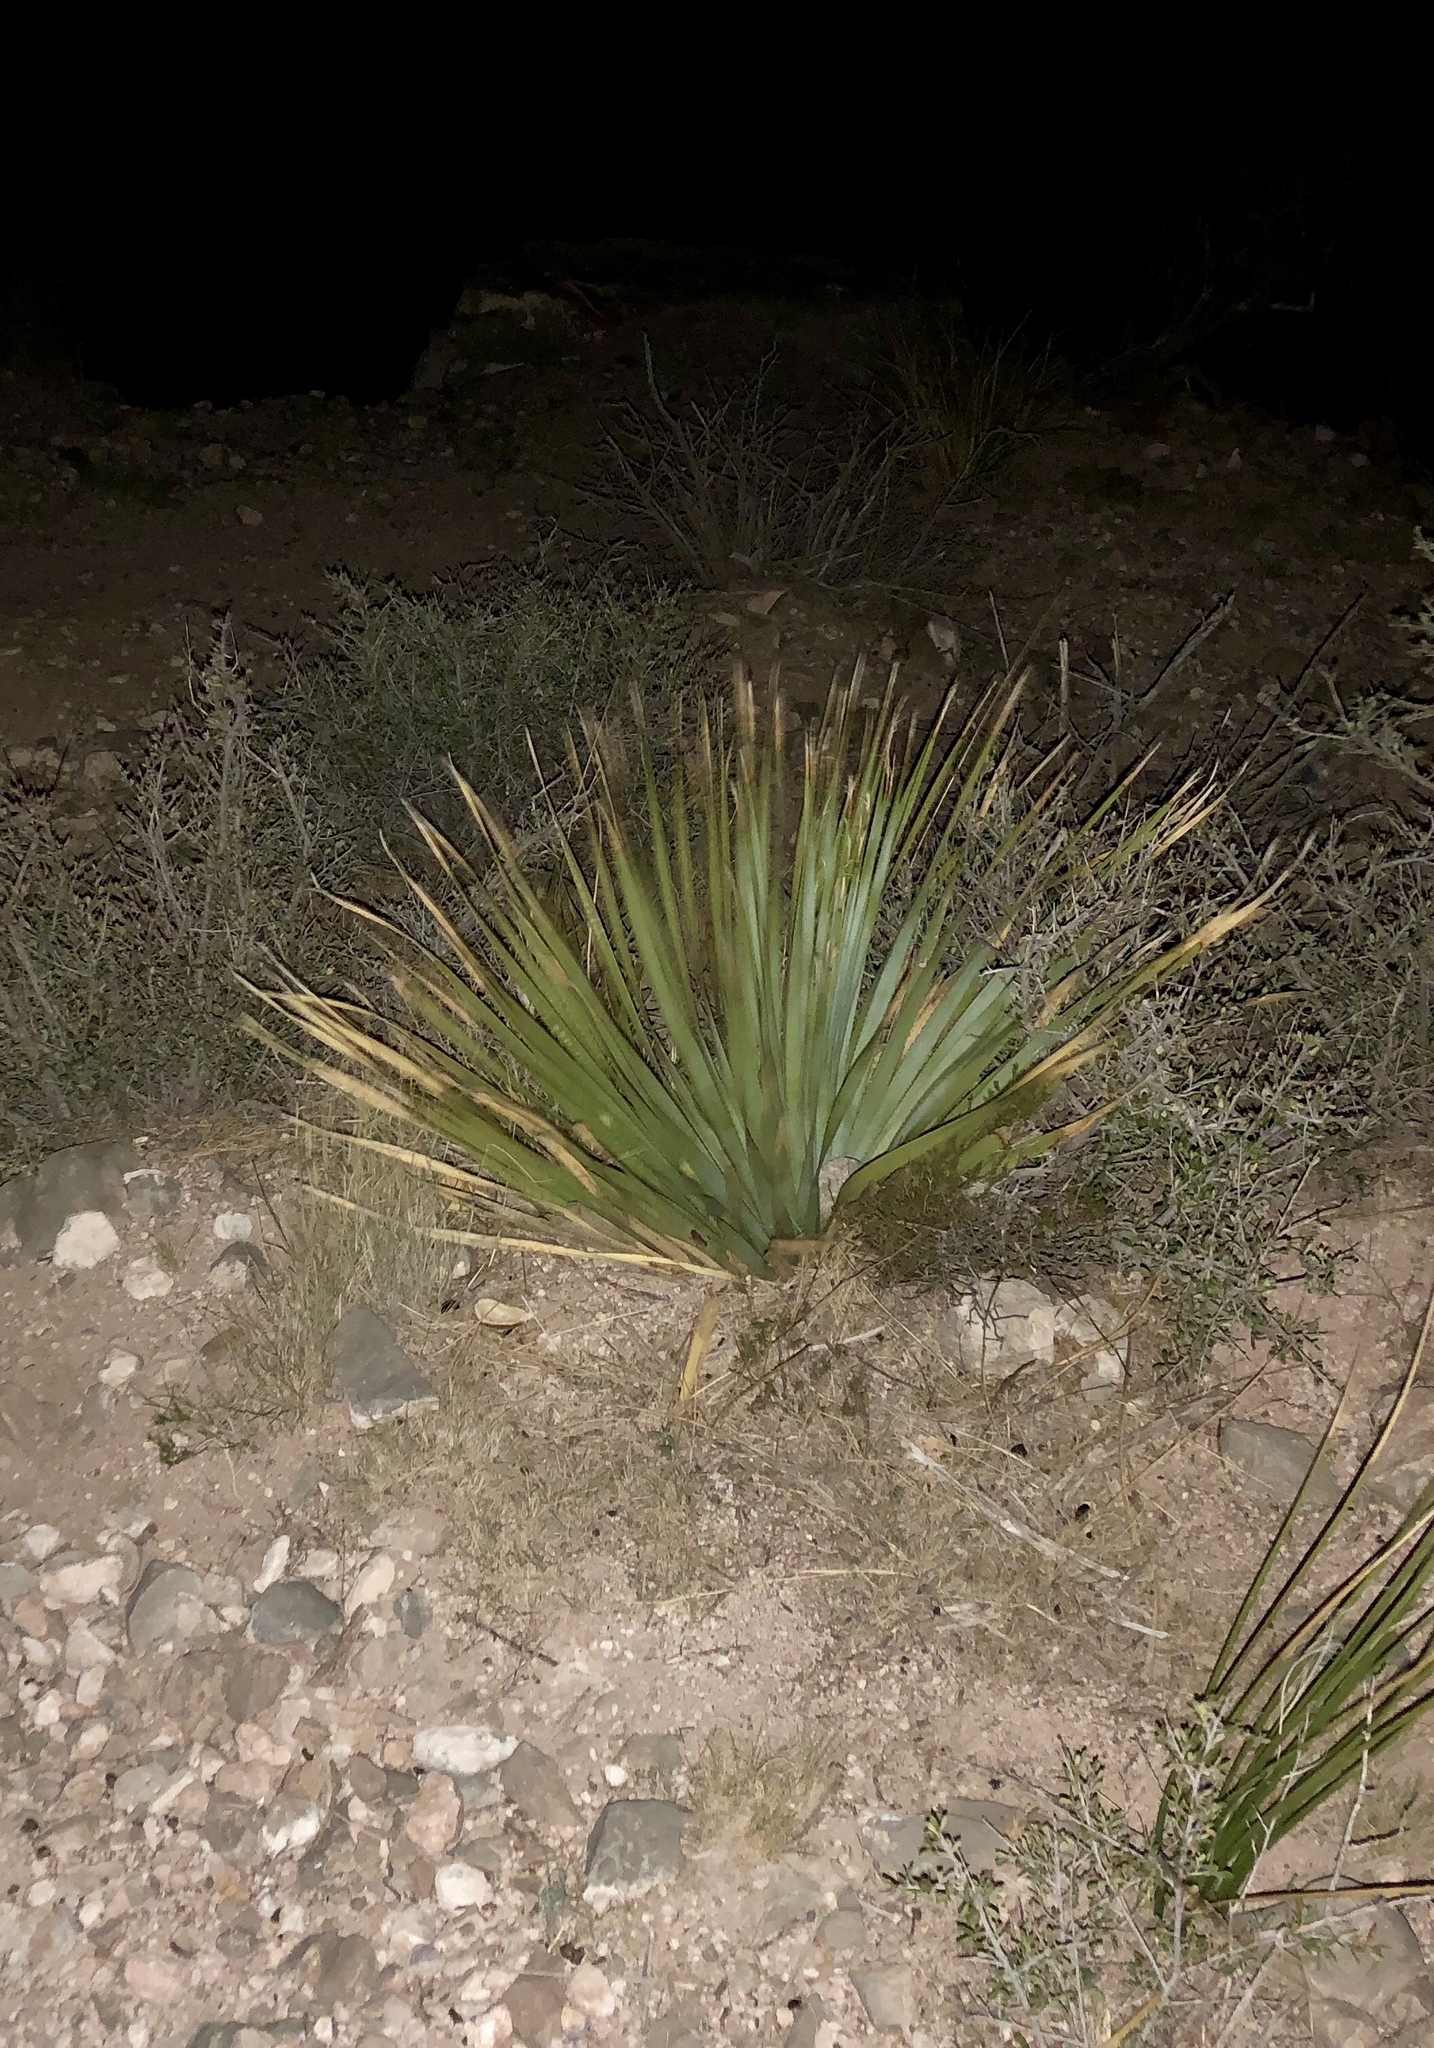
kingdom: Plantae
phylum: Tracheophyta
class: Liliopsida
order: Asparagales
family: Asparagaceae
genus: Dasylirion
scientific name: Dasylirion wheeleri
